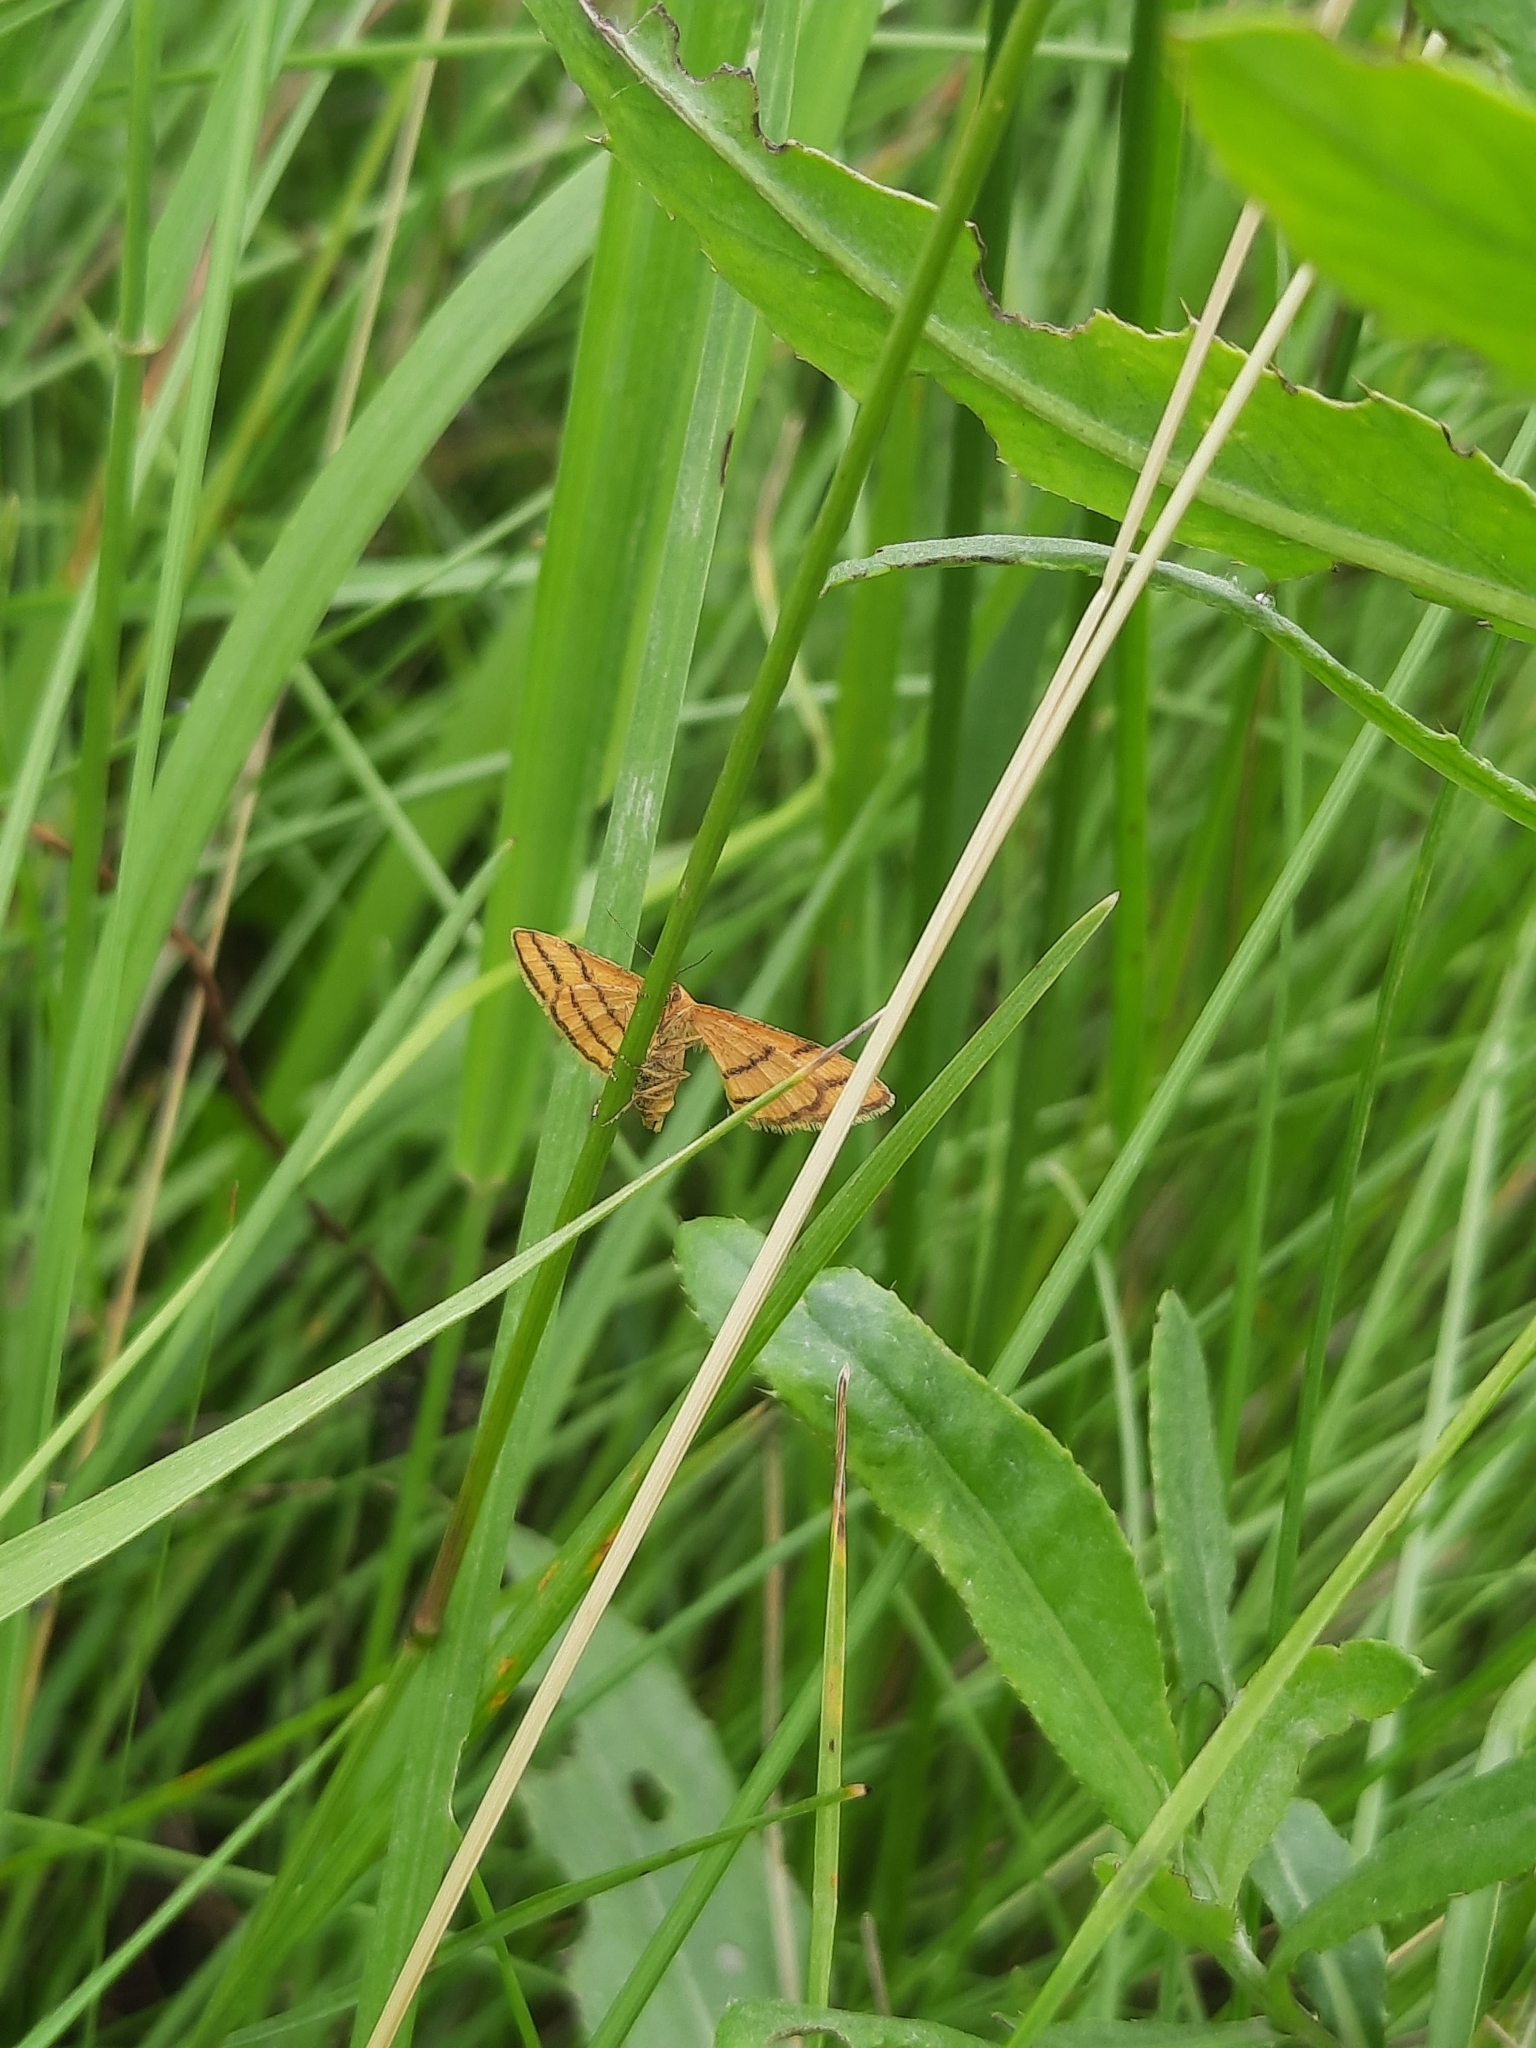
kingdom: Animalia
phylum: Arthropoda
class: Insecta
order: Lepidoptera
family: Geometridae
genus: Idaea
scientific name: Idaea aureolaria
